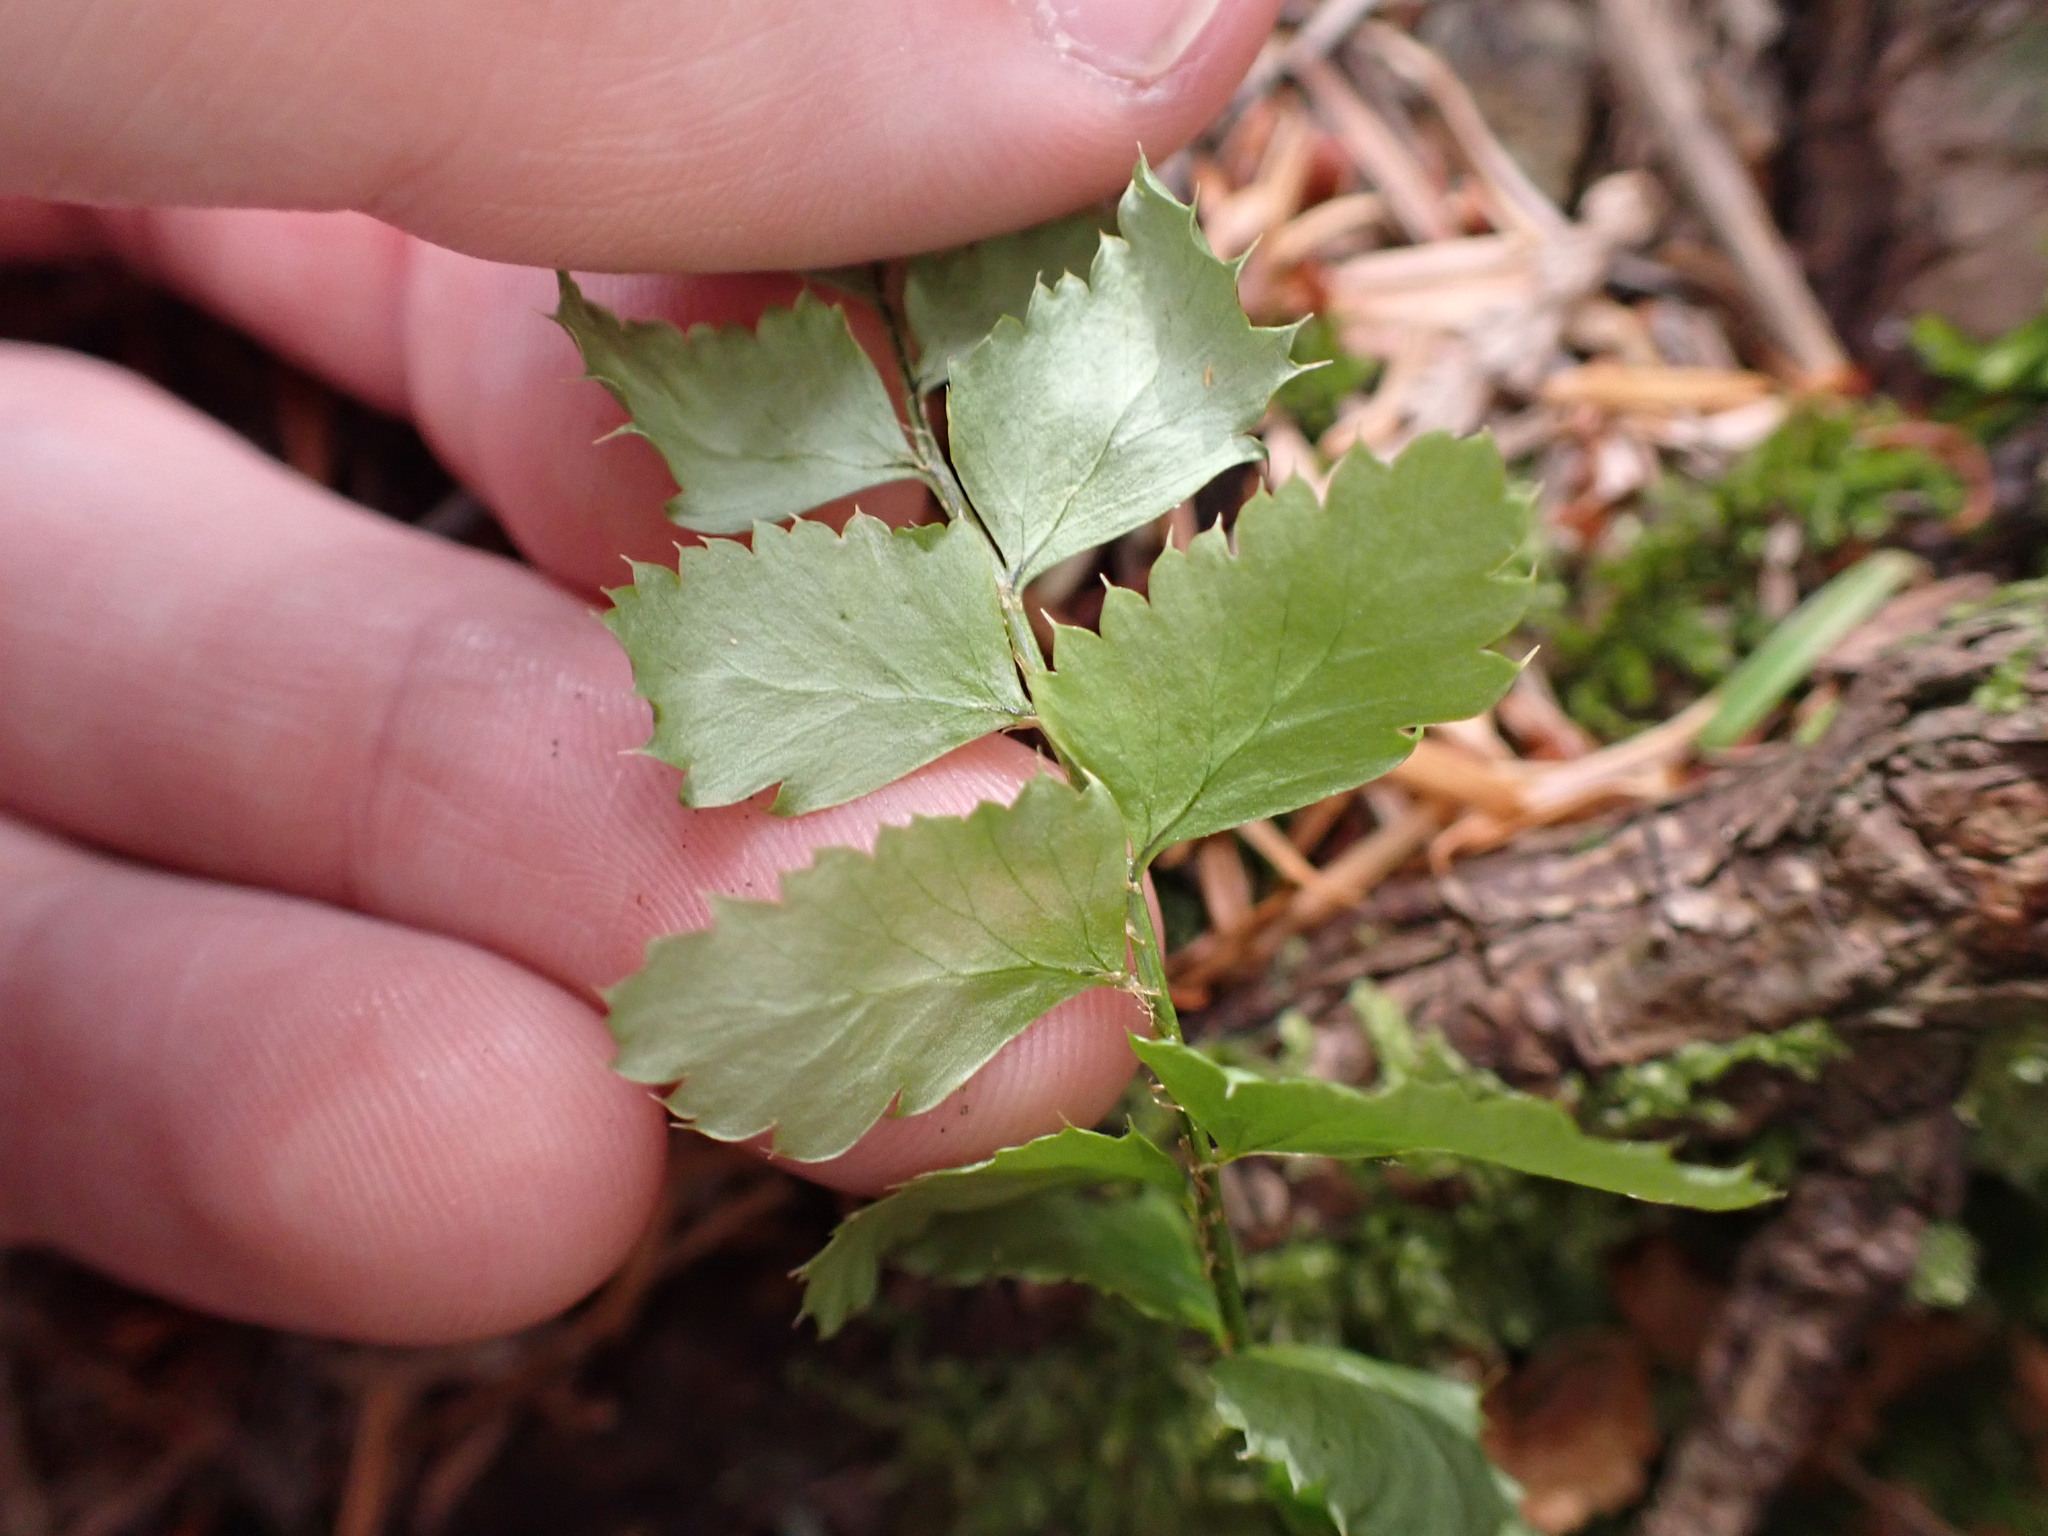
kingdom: Plantae
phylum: Tracheophyta
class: Polypodiopsida
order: Polypodiales
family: Dryopteridaceae
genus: Polystichum
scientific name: Polystichum munitum
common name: Western sword-fern
